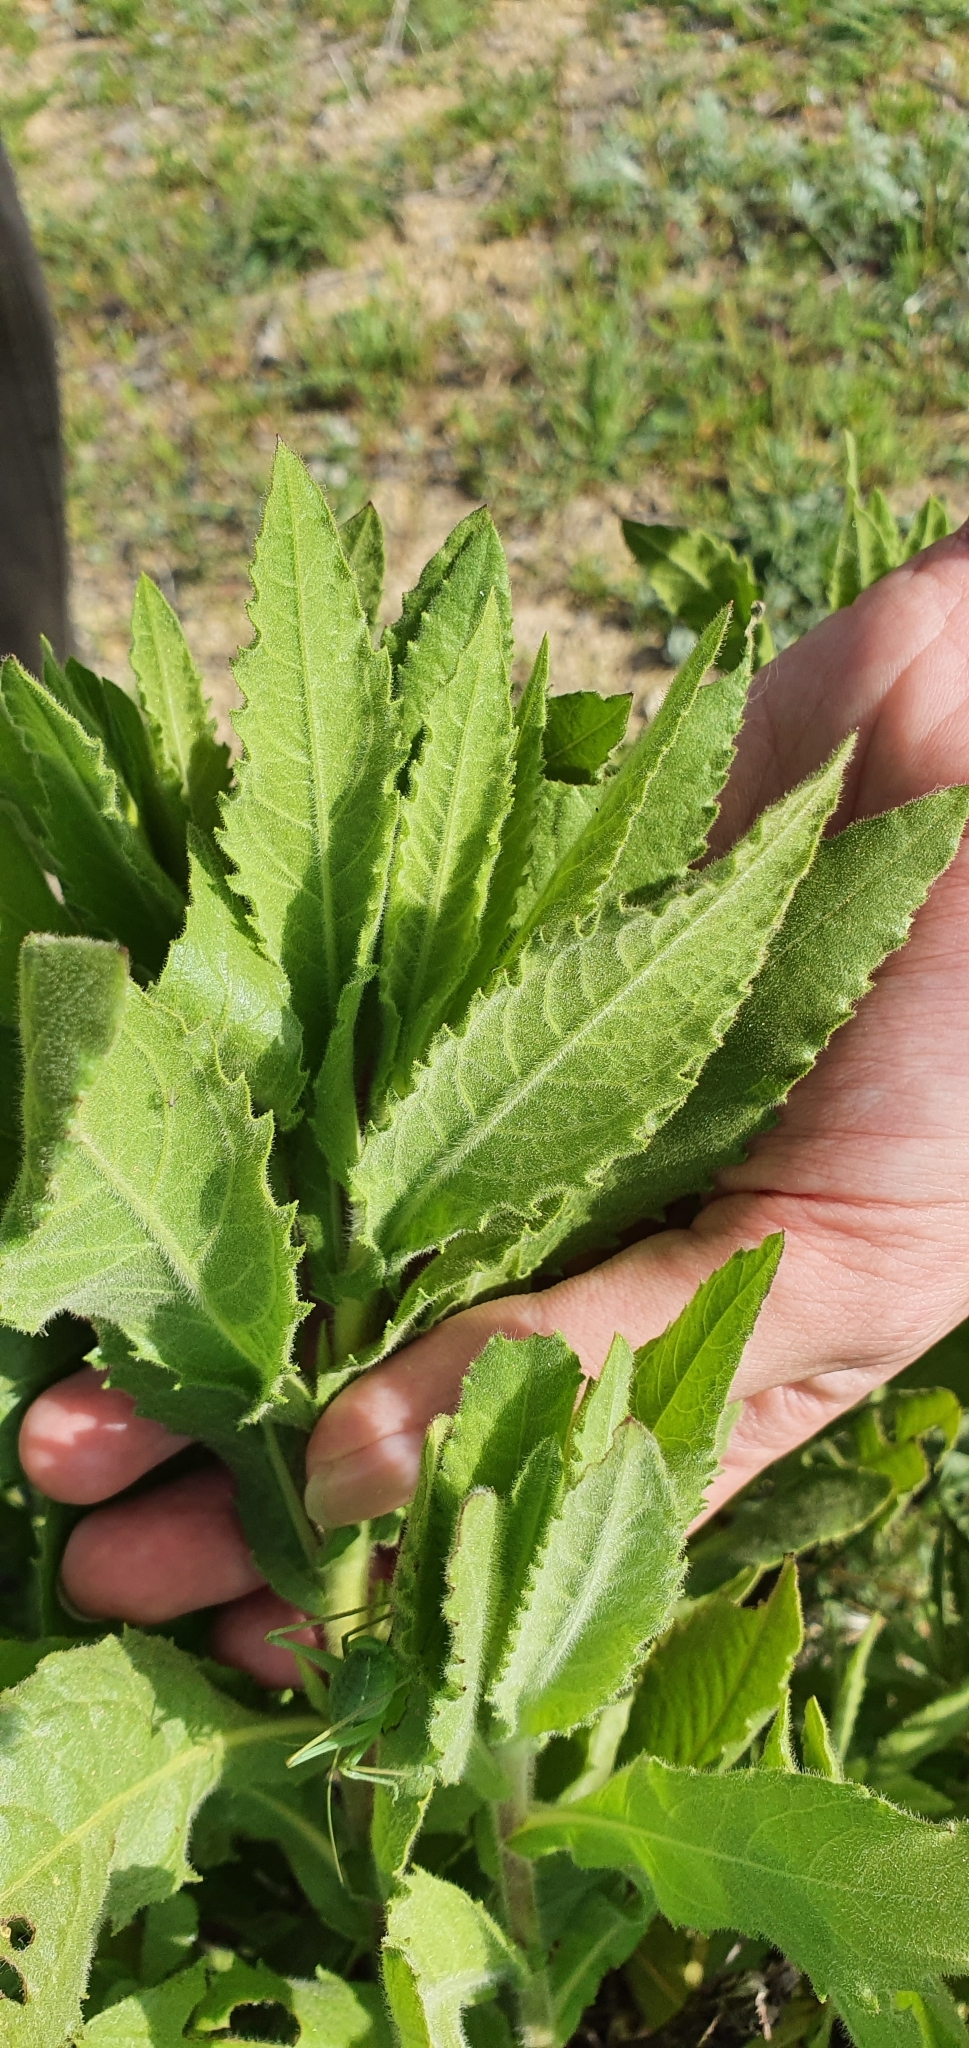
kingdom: Plantae
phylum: Tracheophyta
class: Magnoliopsida
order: Asterales
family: Asteraceae
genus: Dittrichia
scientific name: Dittrichia viscosa
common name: Woody fleabane
